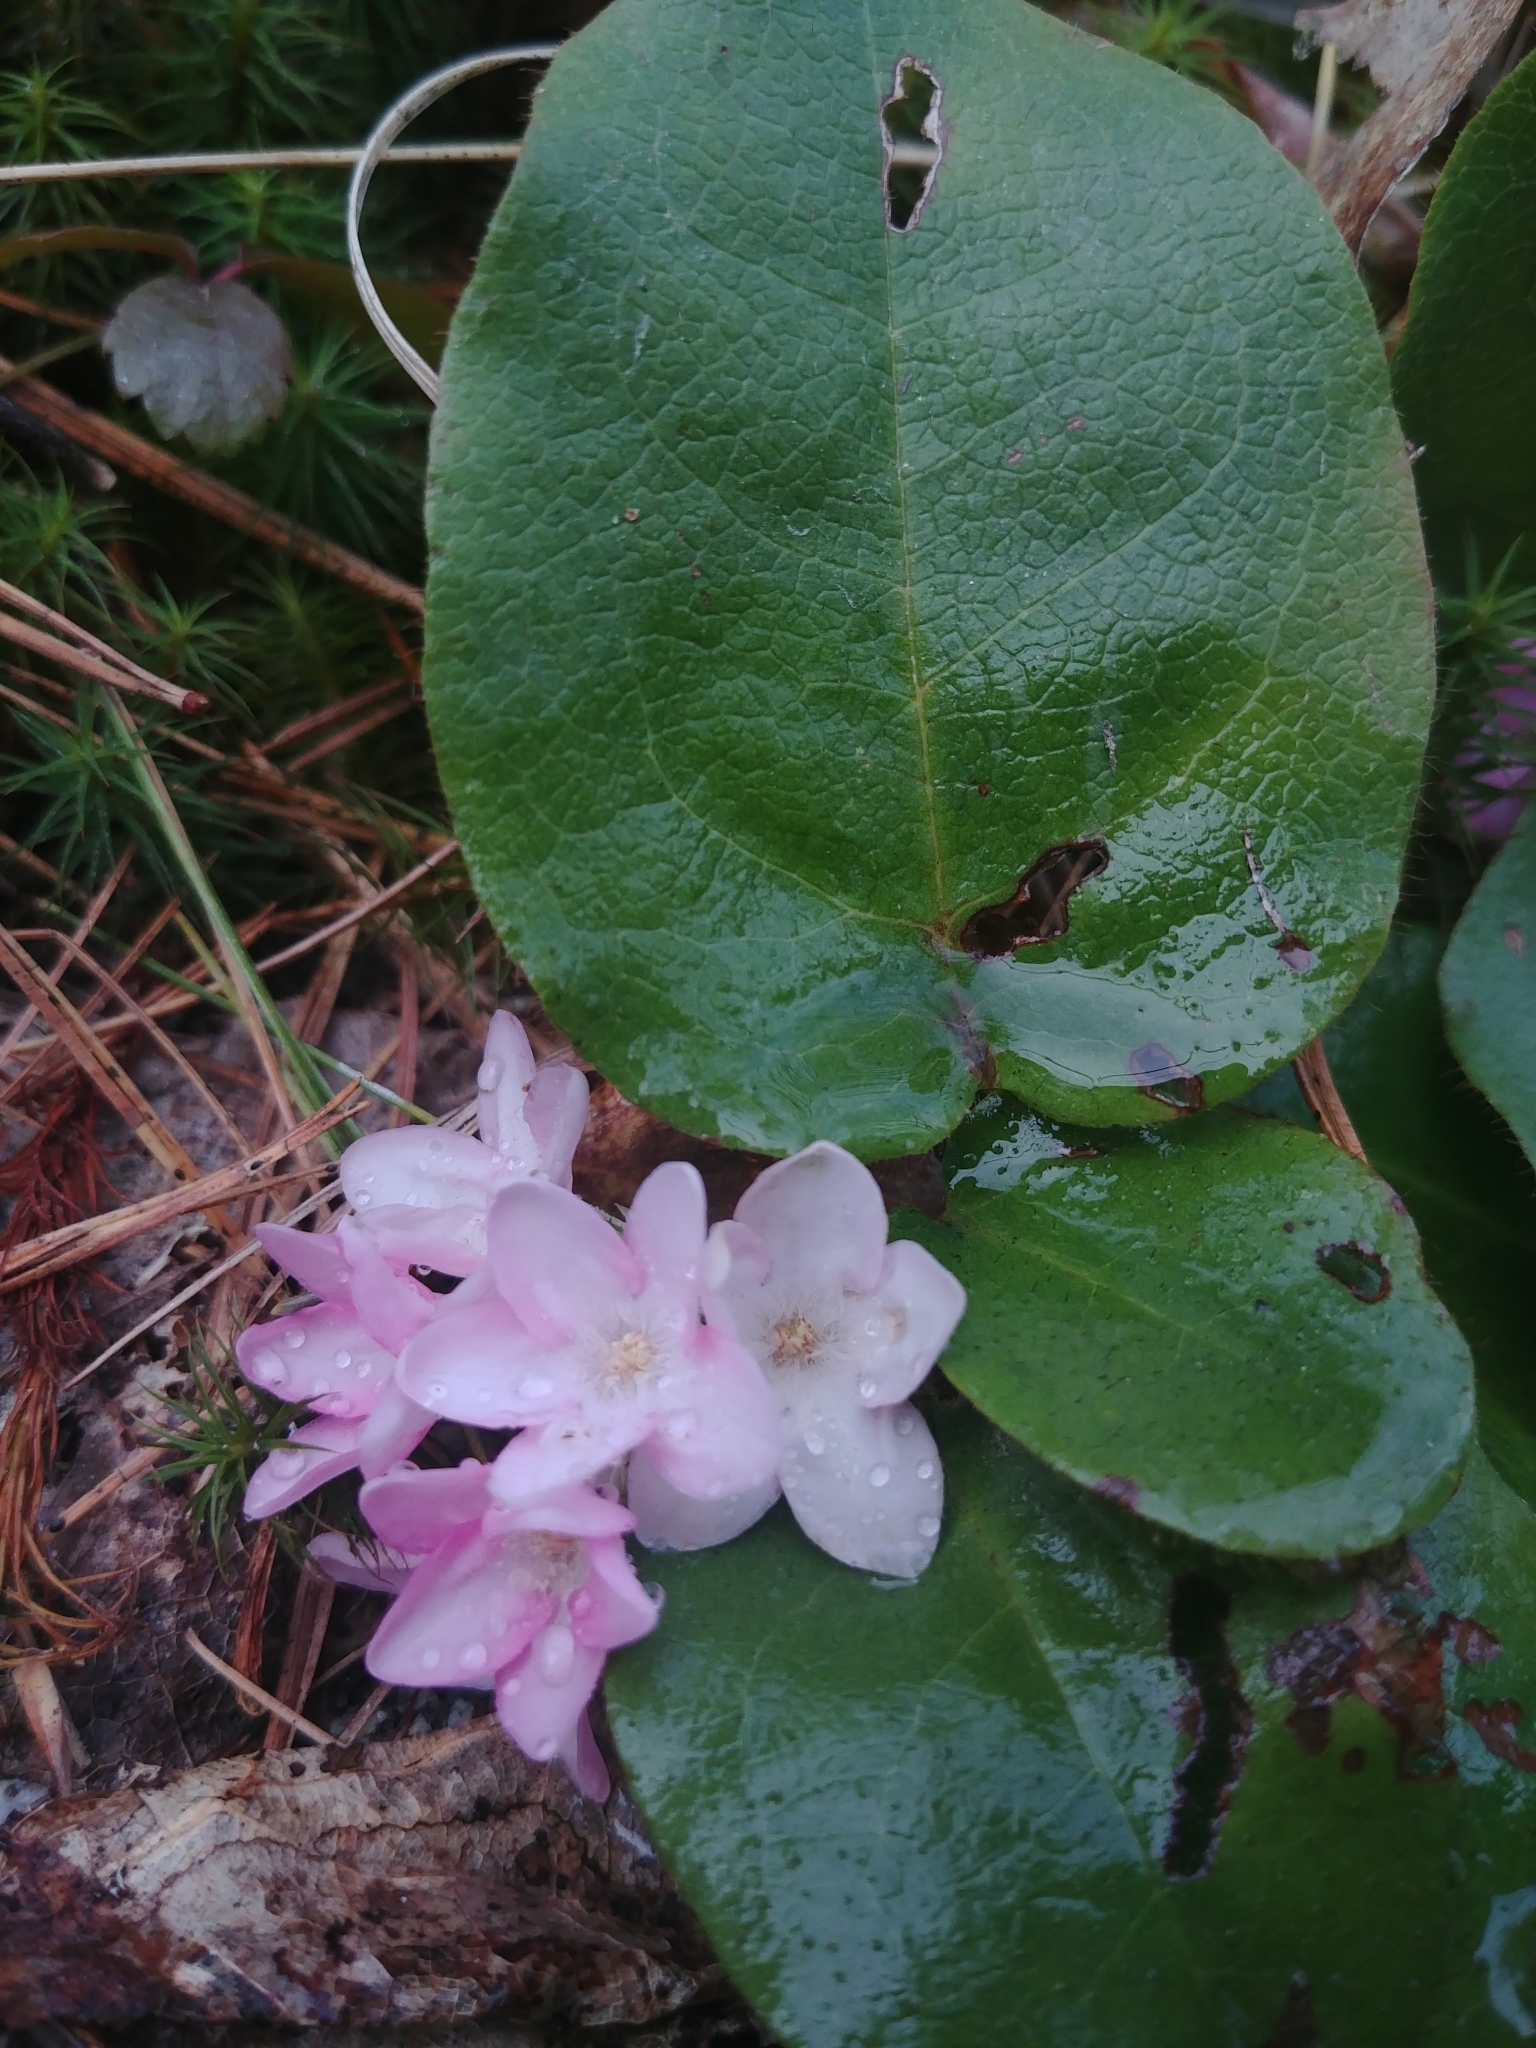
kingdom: Plantae
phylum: Tracheophyta
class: Magnoliopsida
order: Ericales
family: Ericaceae
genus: Epigaea
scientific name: Epigaea repens
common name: Gravelroot
